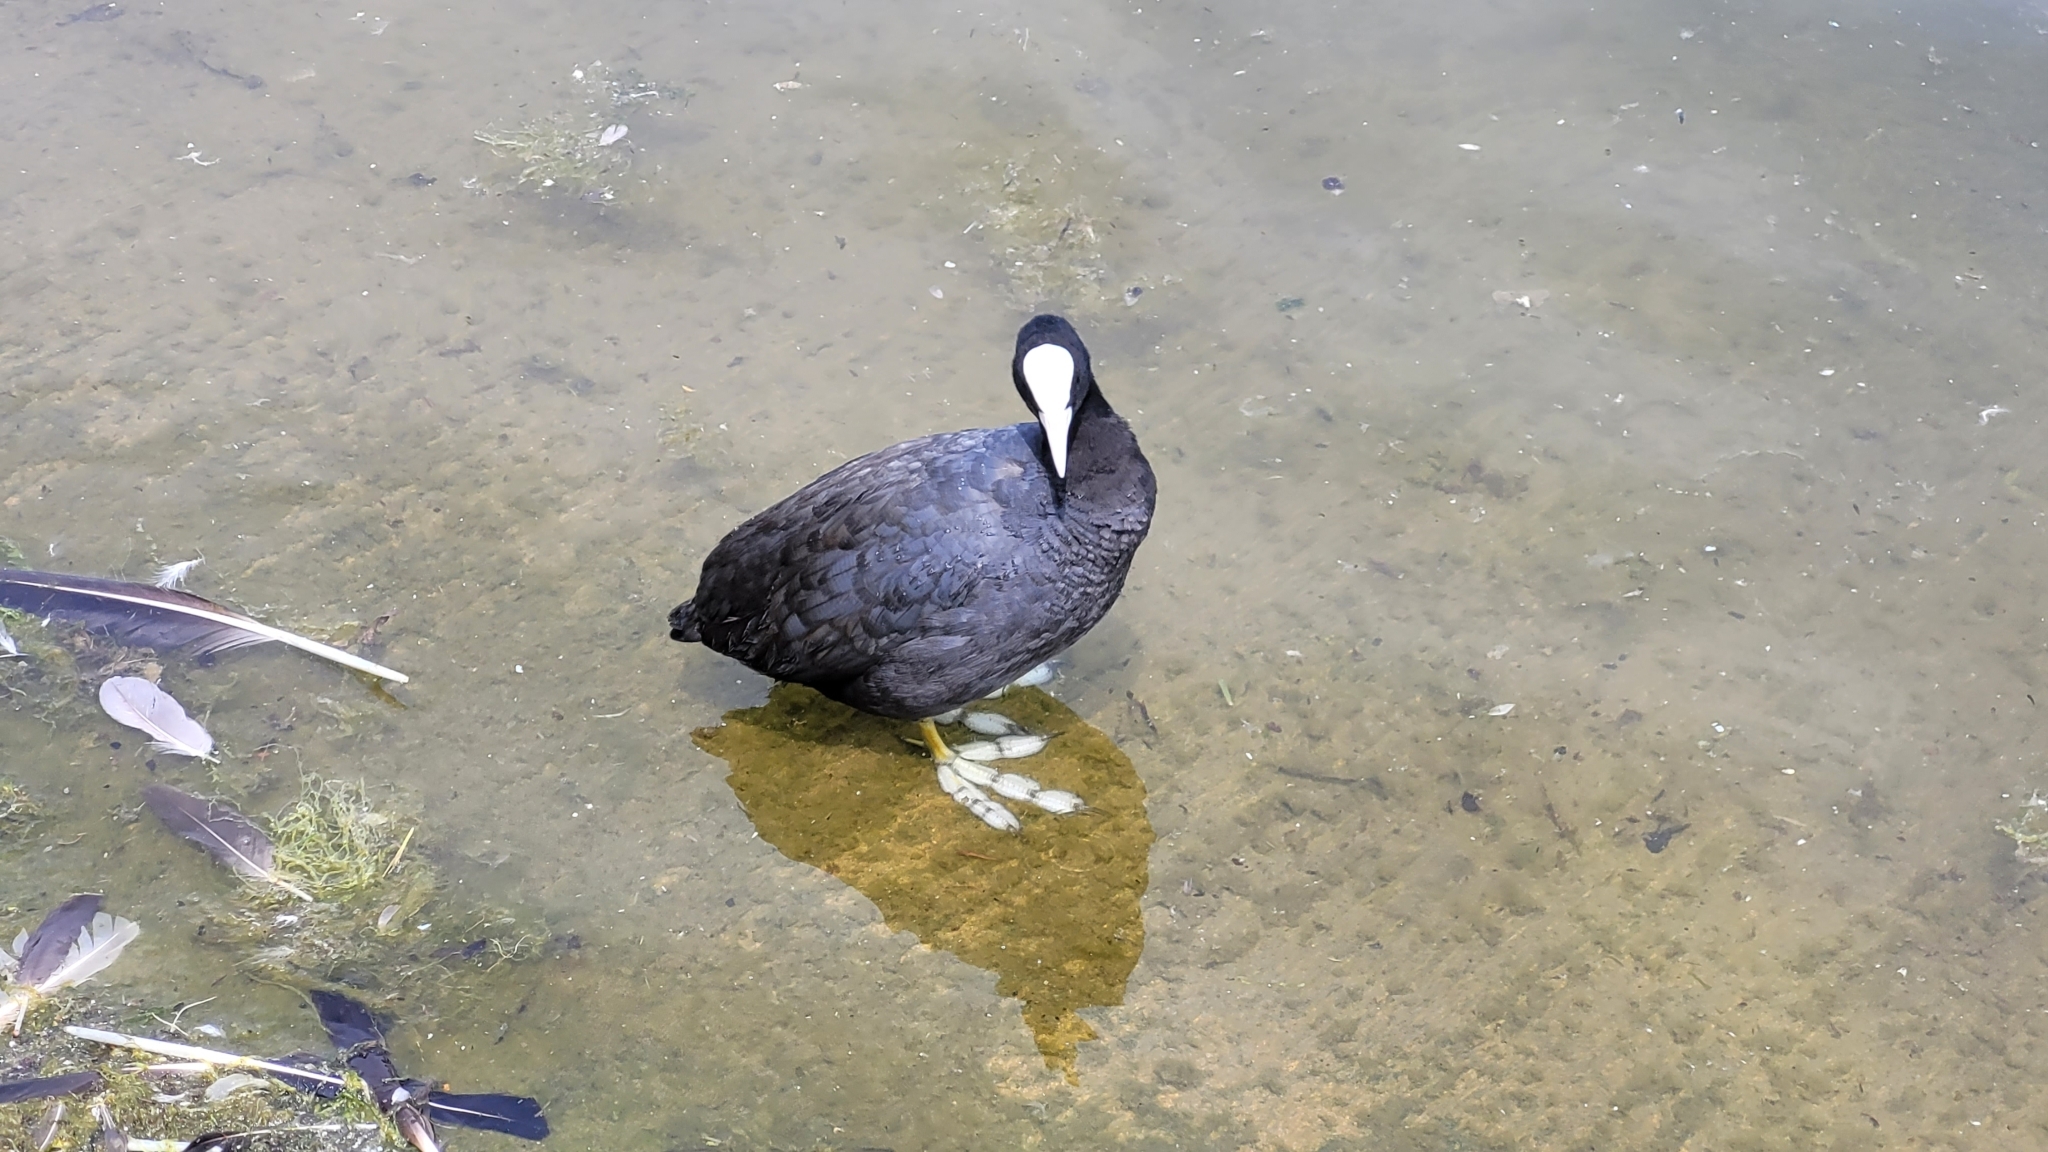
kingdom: Animalia
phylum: Chordata
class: Aves
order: Gruiformes
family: Rallidae
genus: Fulica
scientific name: Fulica atra
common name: Eurasian coot
